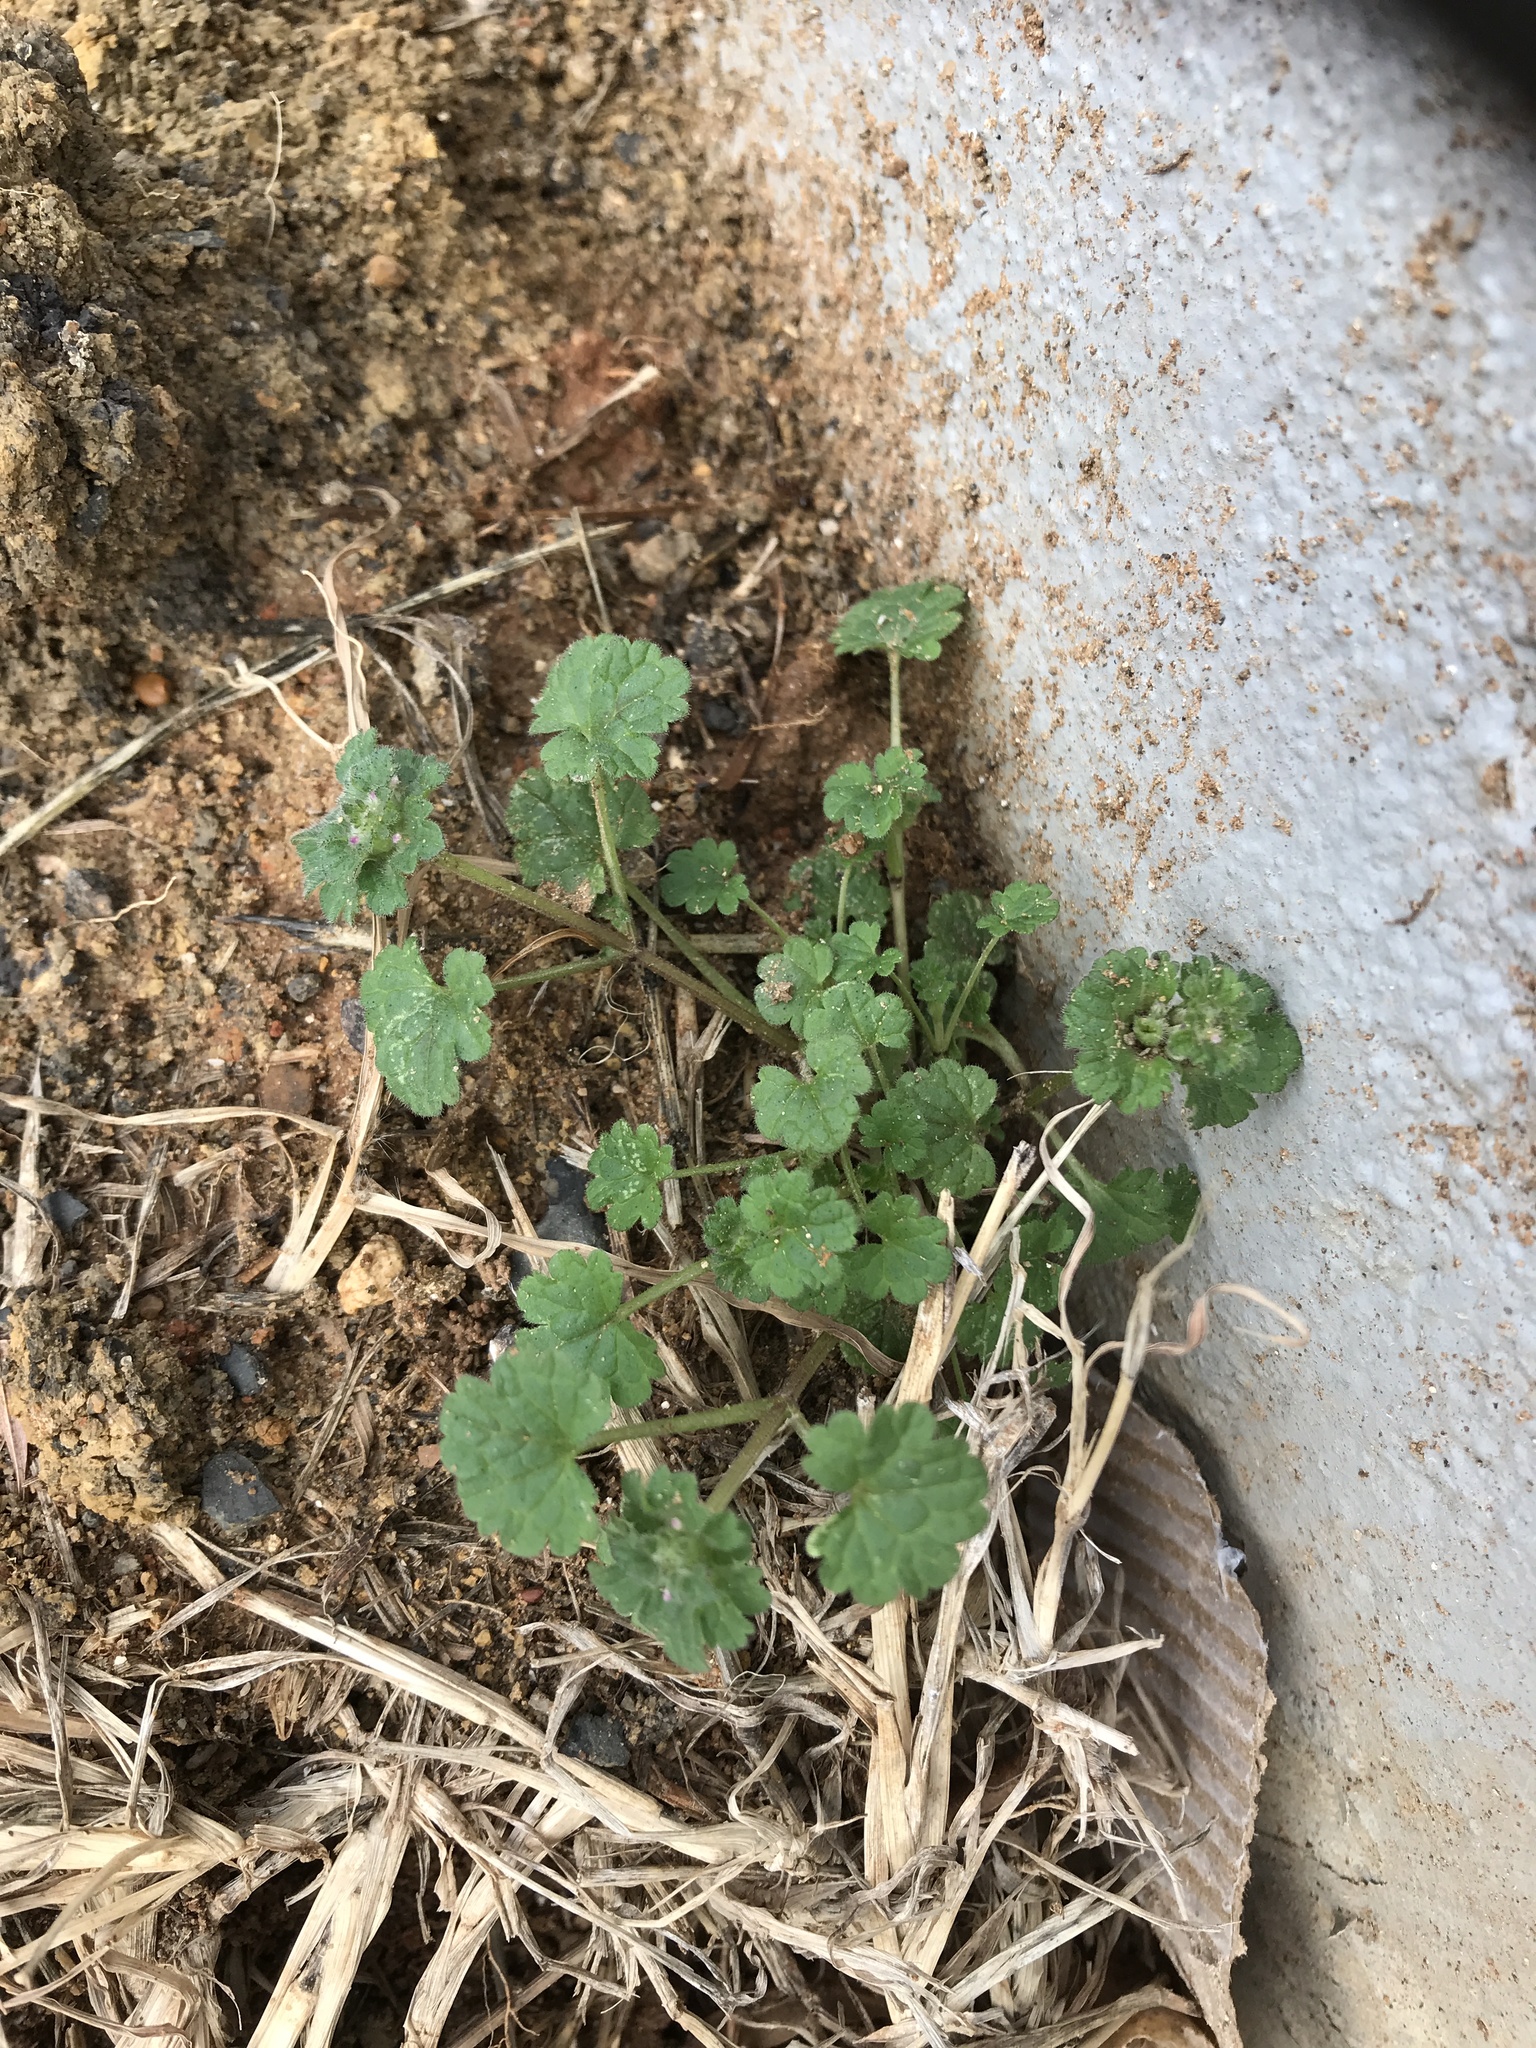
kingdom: Plantae
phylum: Tracheophyta
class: Magnoliopsida
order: Lamiales
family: Lamiaceae
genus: Lamium
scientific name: Lamium amplexicaule
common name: Henbit dead-nettle
